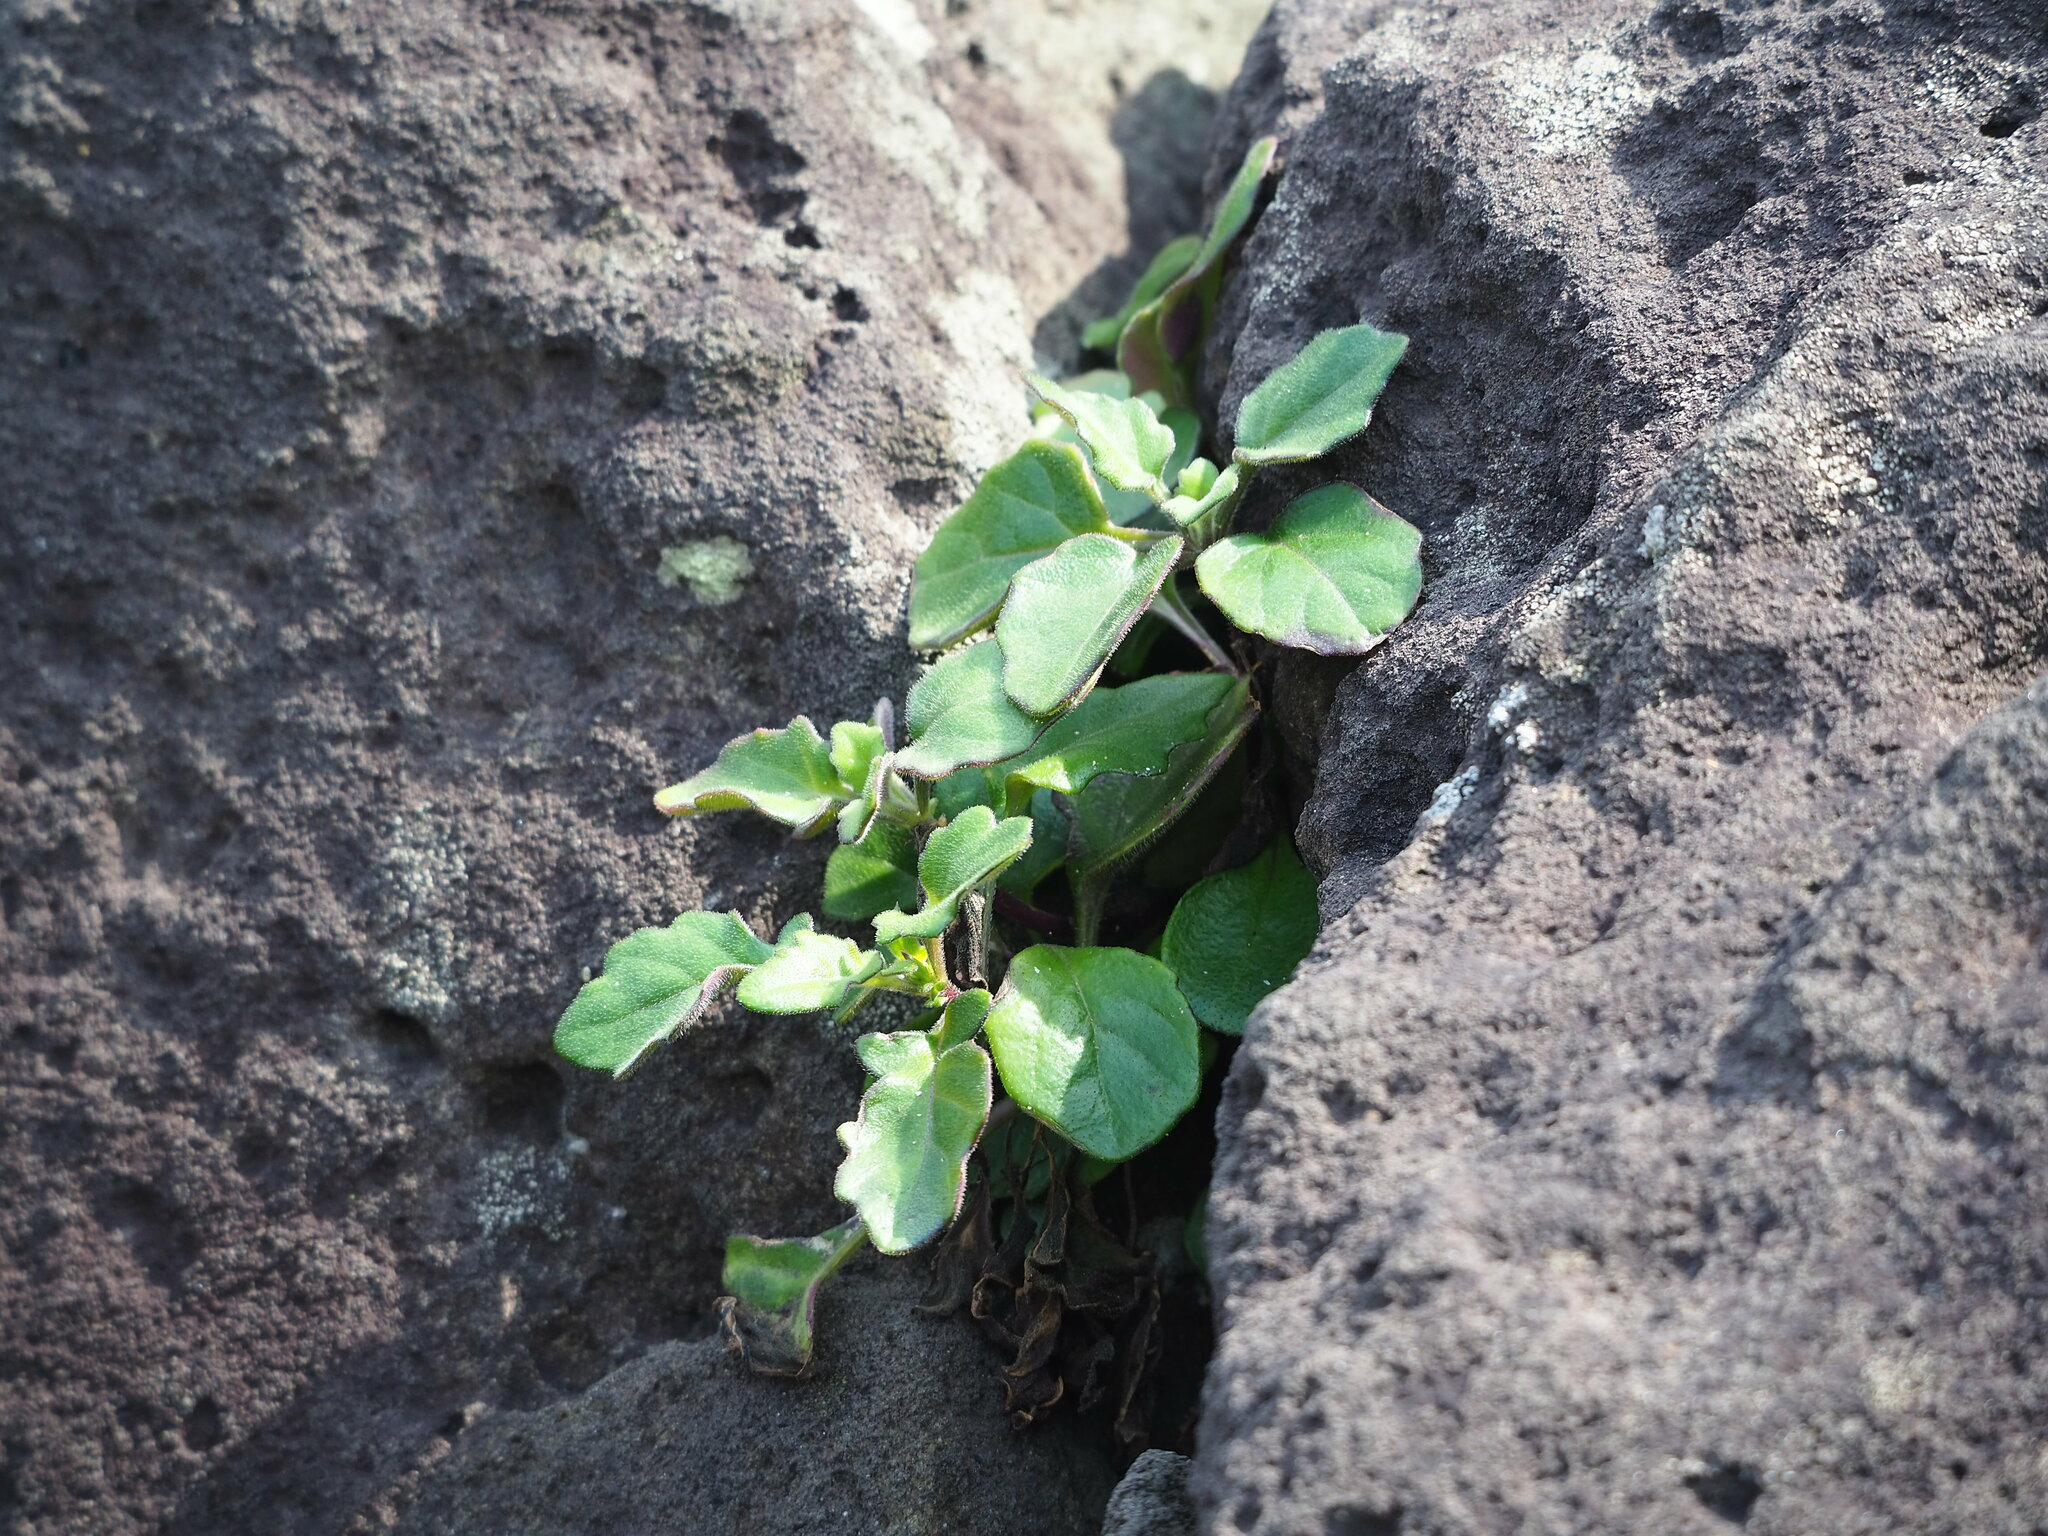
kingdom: Plantae
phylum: Tracheophyta
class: Magnoliopsida
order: Asterales
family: Asteraceae
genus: Gynura
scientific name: Gynura formosana
